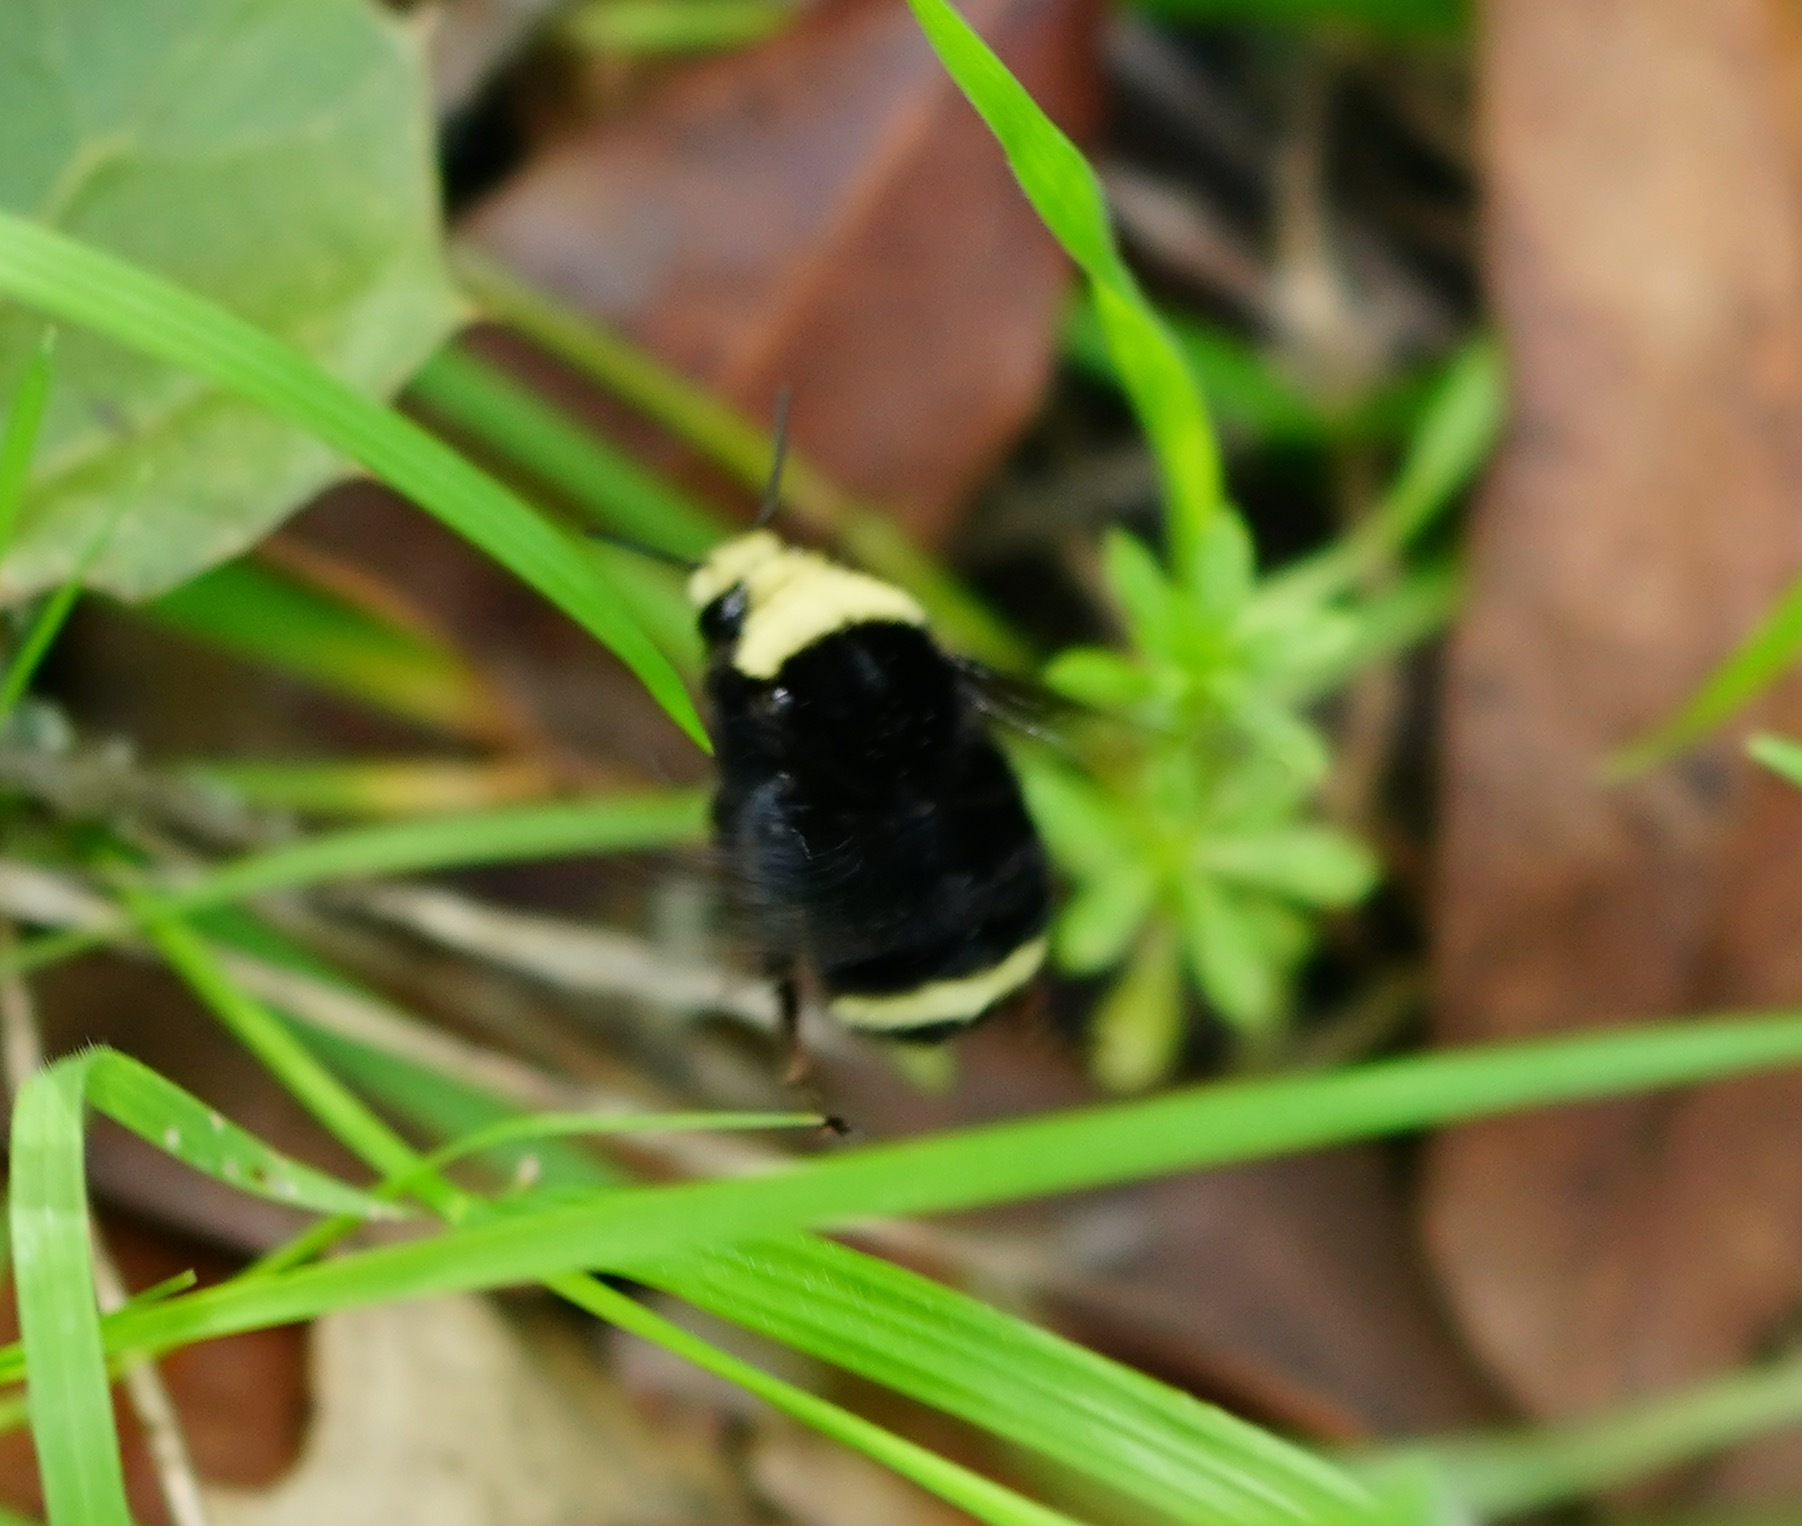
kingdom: Animalia
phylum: Arthropoda
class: Insecta
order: Hymenoptera
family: Apidae
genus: Bombus
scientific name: Bombus vosnesenskii
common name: Vosnesensky bumble bee
